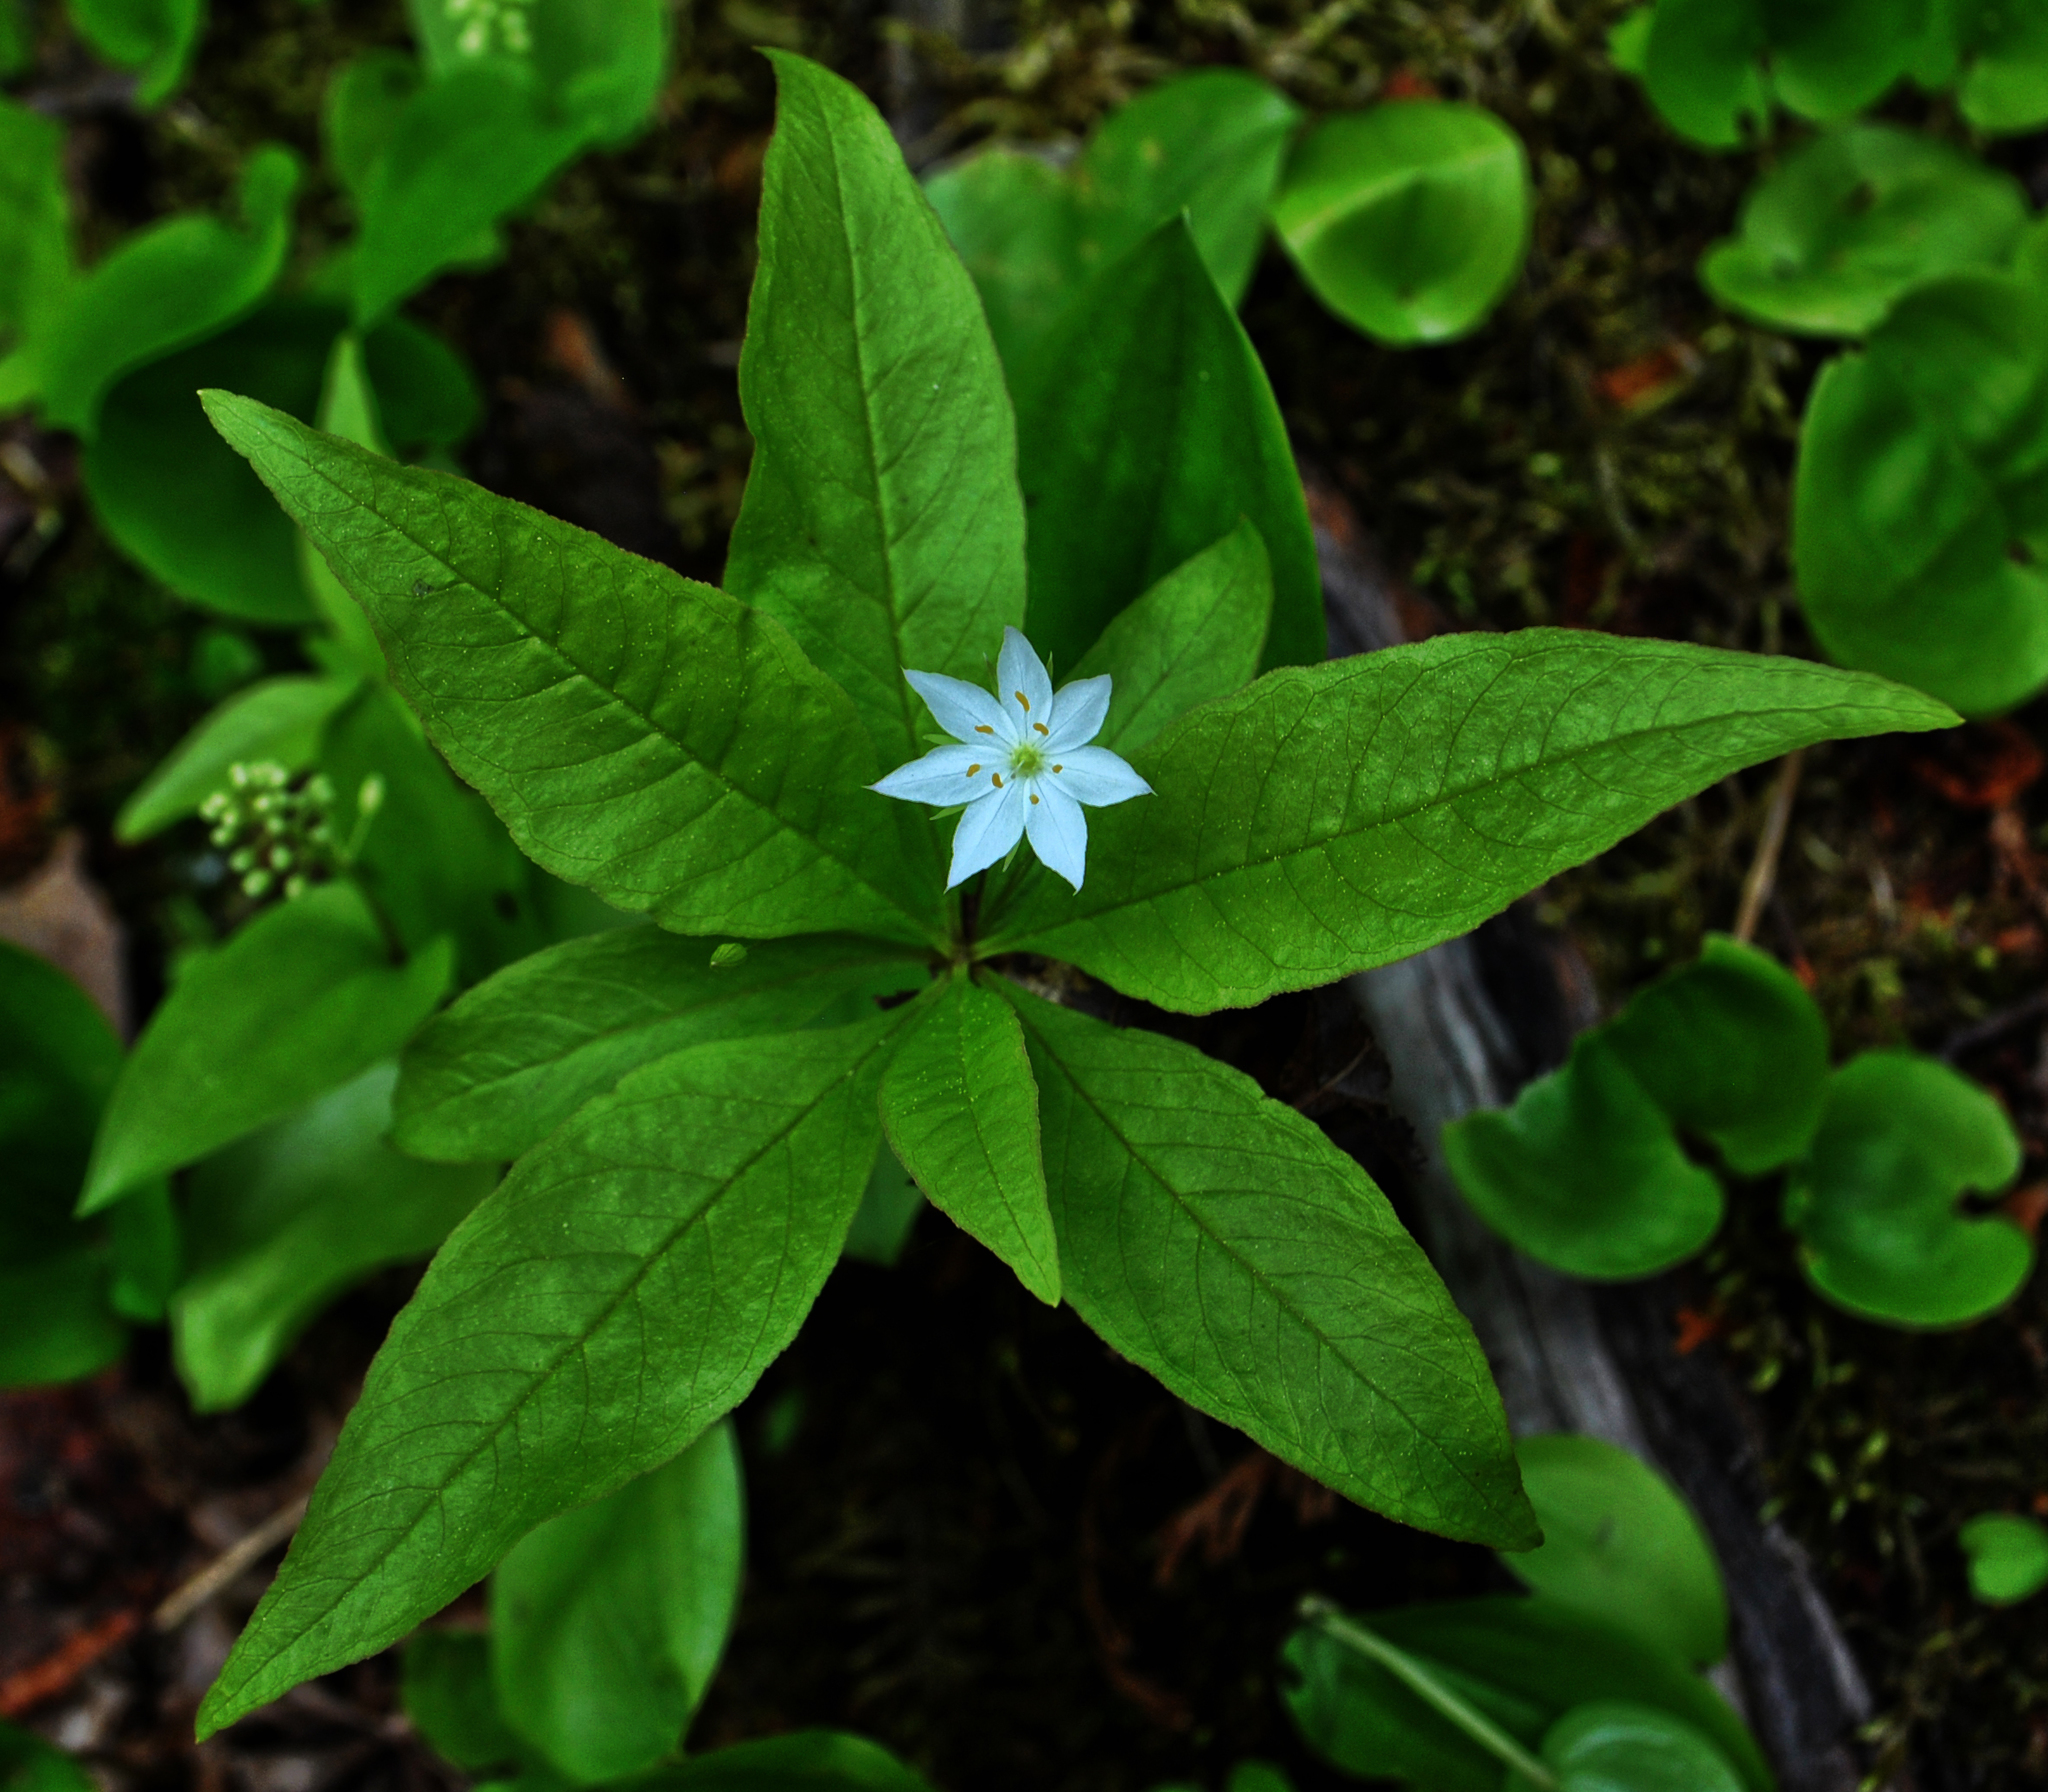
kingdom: Plantae
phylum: Tracheophyta
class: Magnoliopsida
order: Ericales
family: Primulaceae
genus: Lysimachia
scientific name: Lysimachia borealis
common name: American starflower
